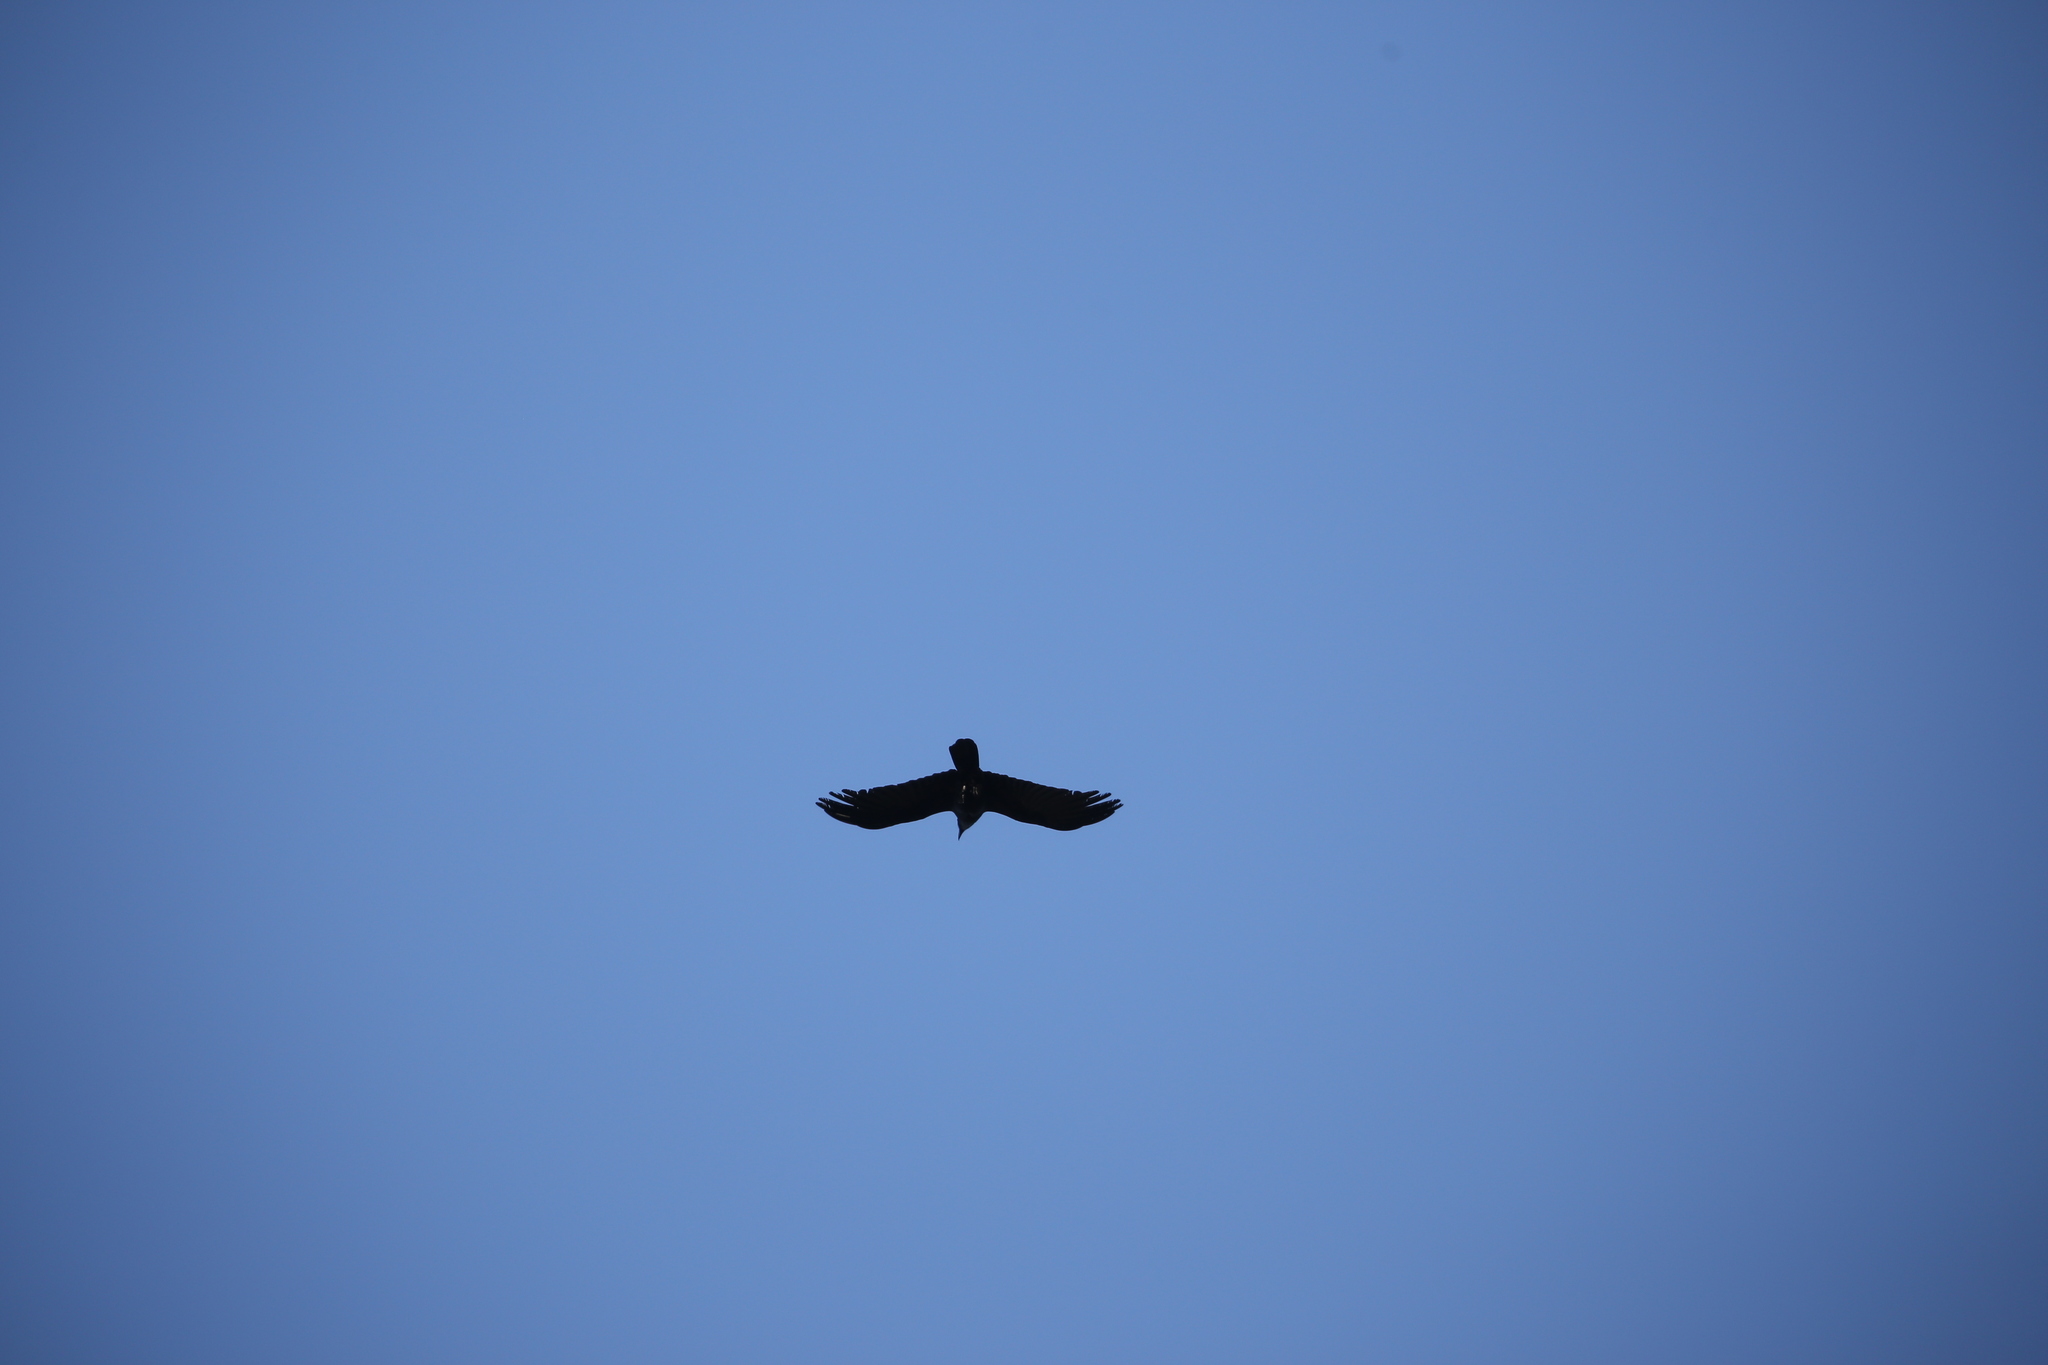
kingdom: Animalia
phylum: Chordata
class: Aves
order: Passeriformes
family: Corvidae
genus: Corvus
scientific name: Corvus orru
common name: Torresian crow
